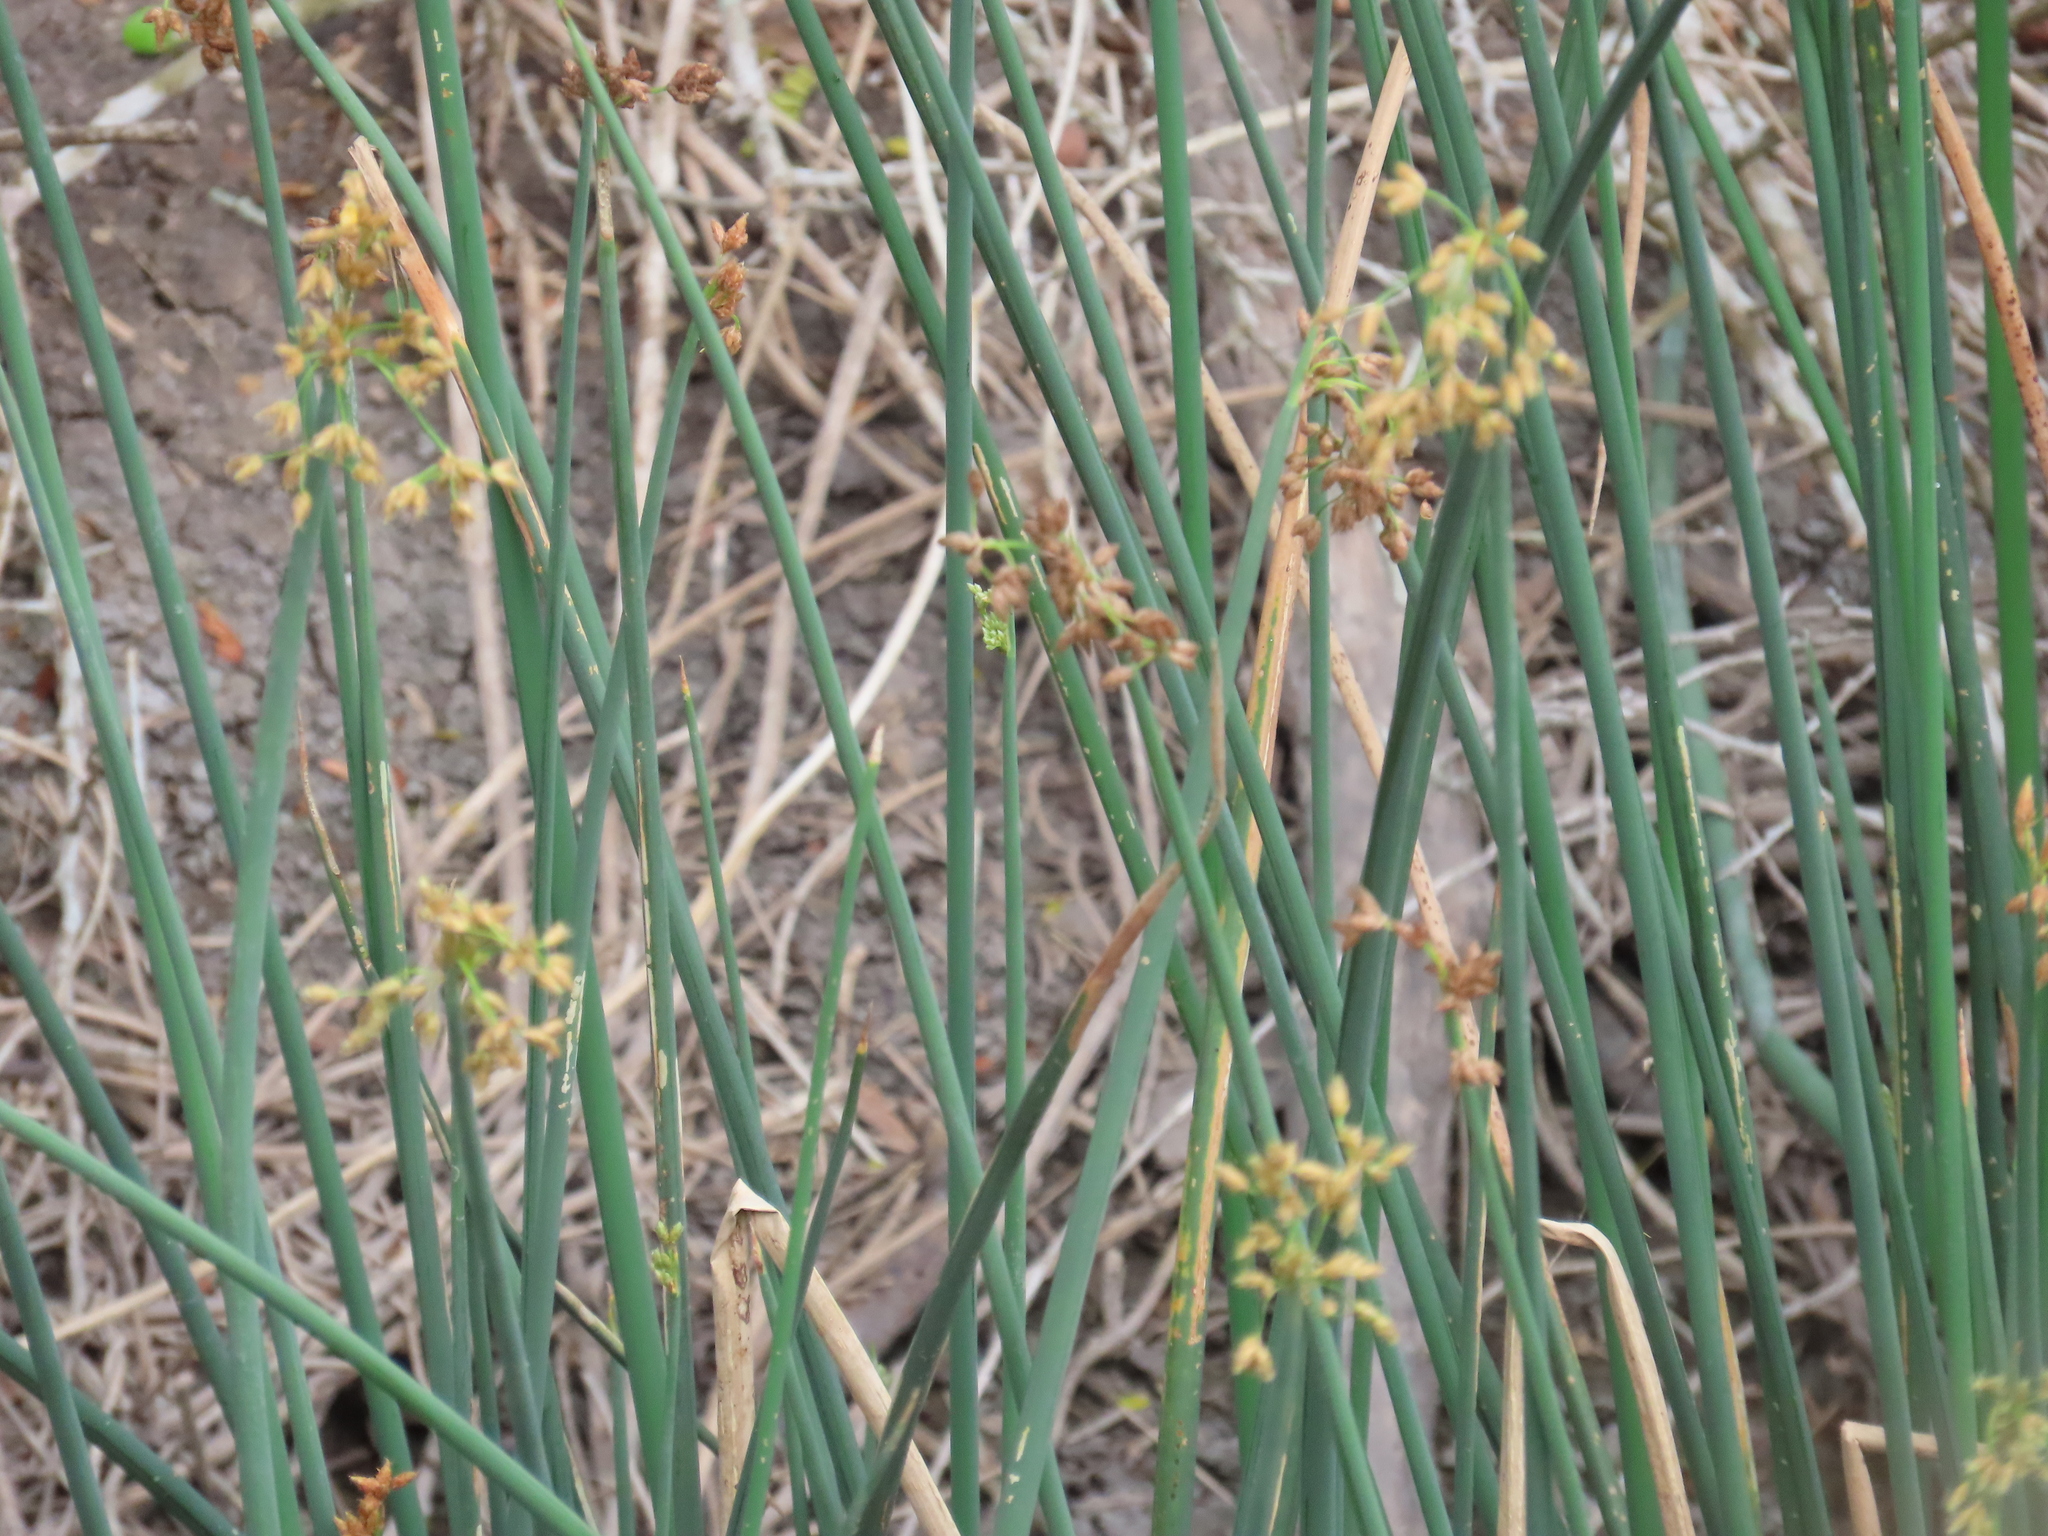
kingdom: Plantae
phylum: Tracheophyta
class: Liliopsida
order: Poales
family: Cyperaceae
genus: Schoenoplectus
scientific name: Schoenoplectus tabernaemontani
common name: Grey club-rush
